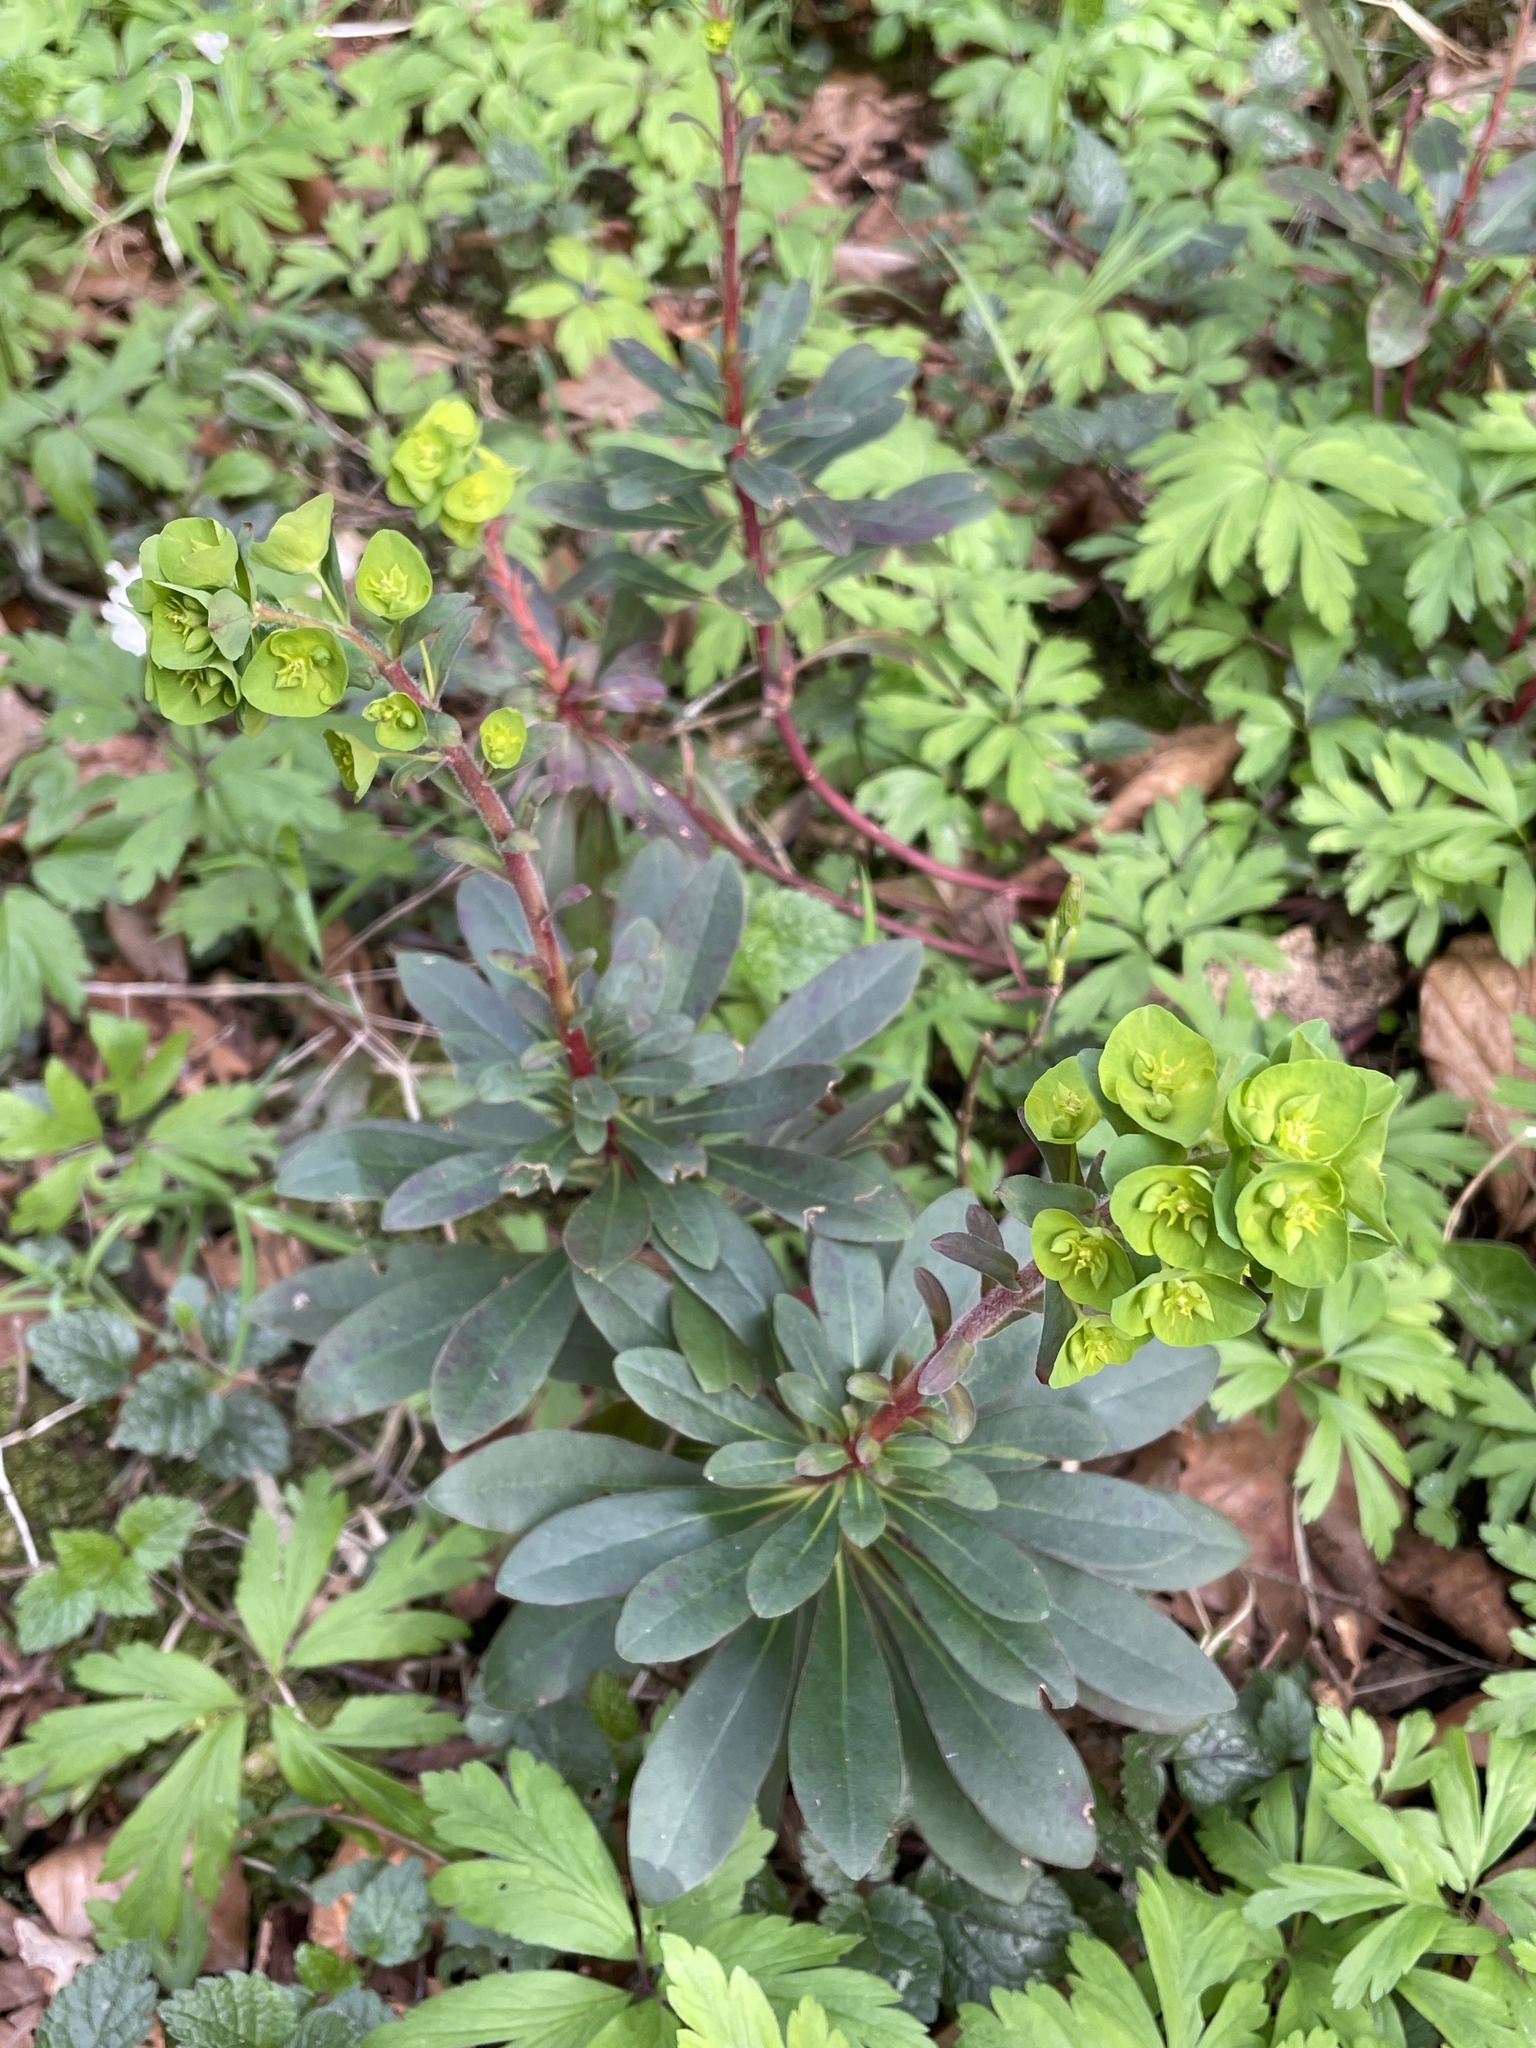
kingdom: Plantae
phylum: Tracheophyta
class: Magnoliopsida
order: Malpighiales
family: Euphorbiaceae
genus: Euphorbia
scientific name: Euphorbia amygdaloides
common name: Wood spurge
